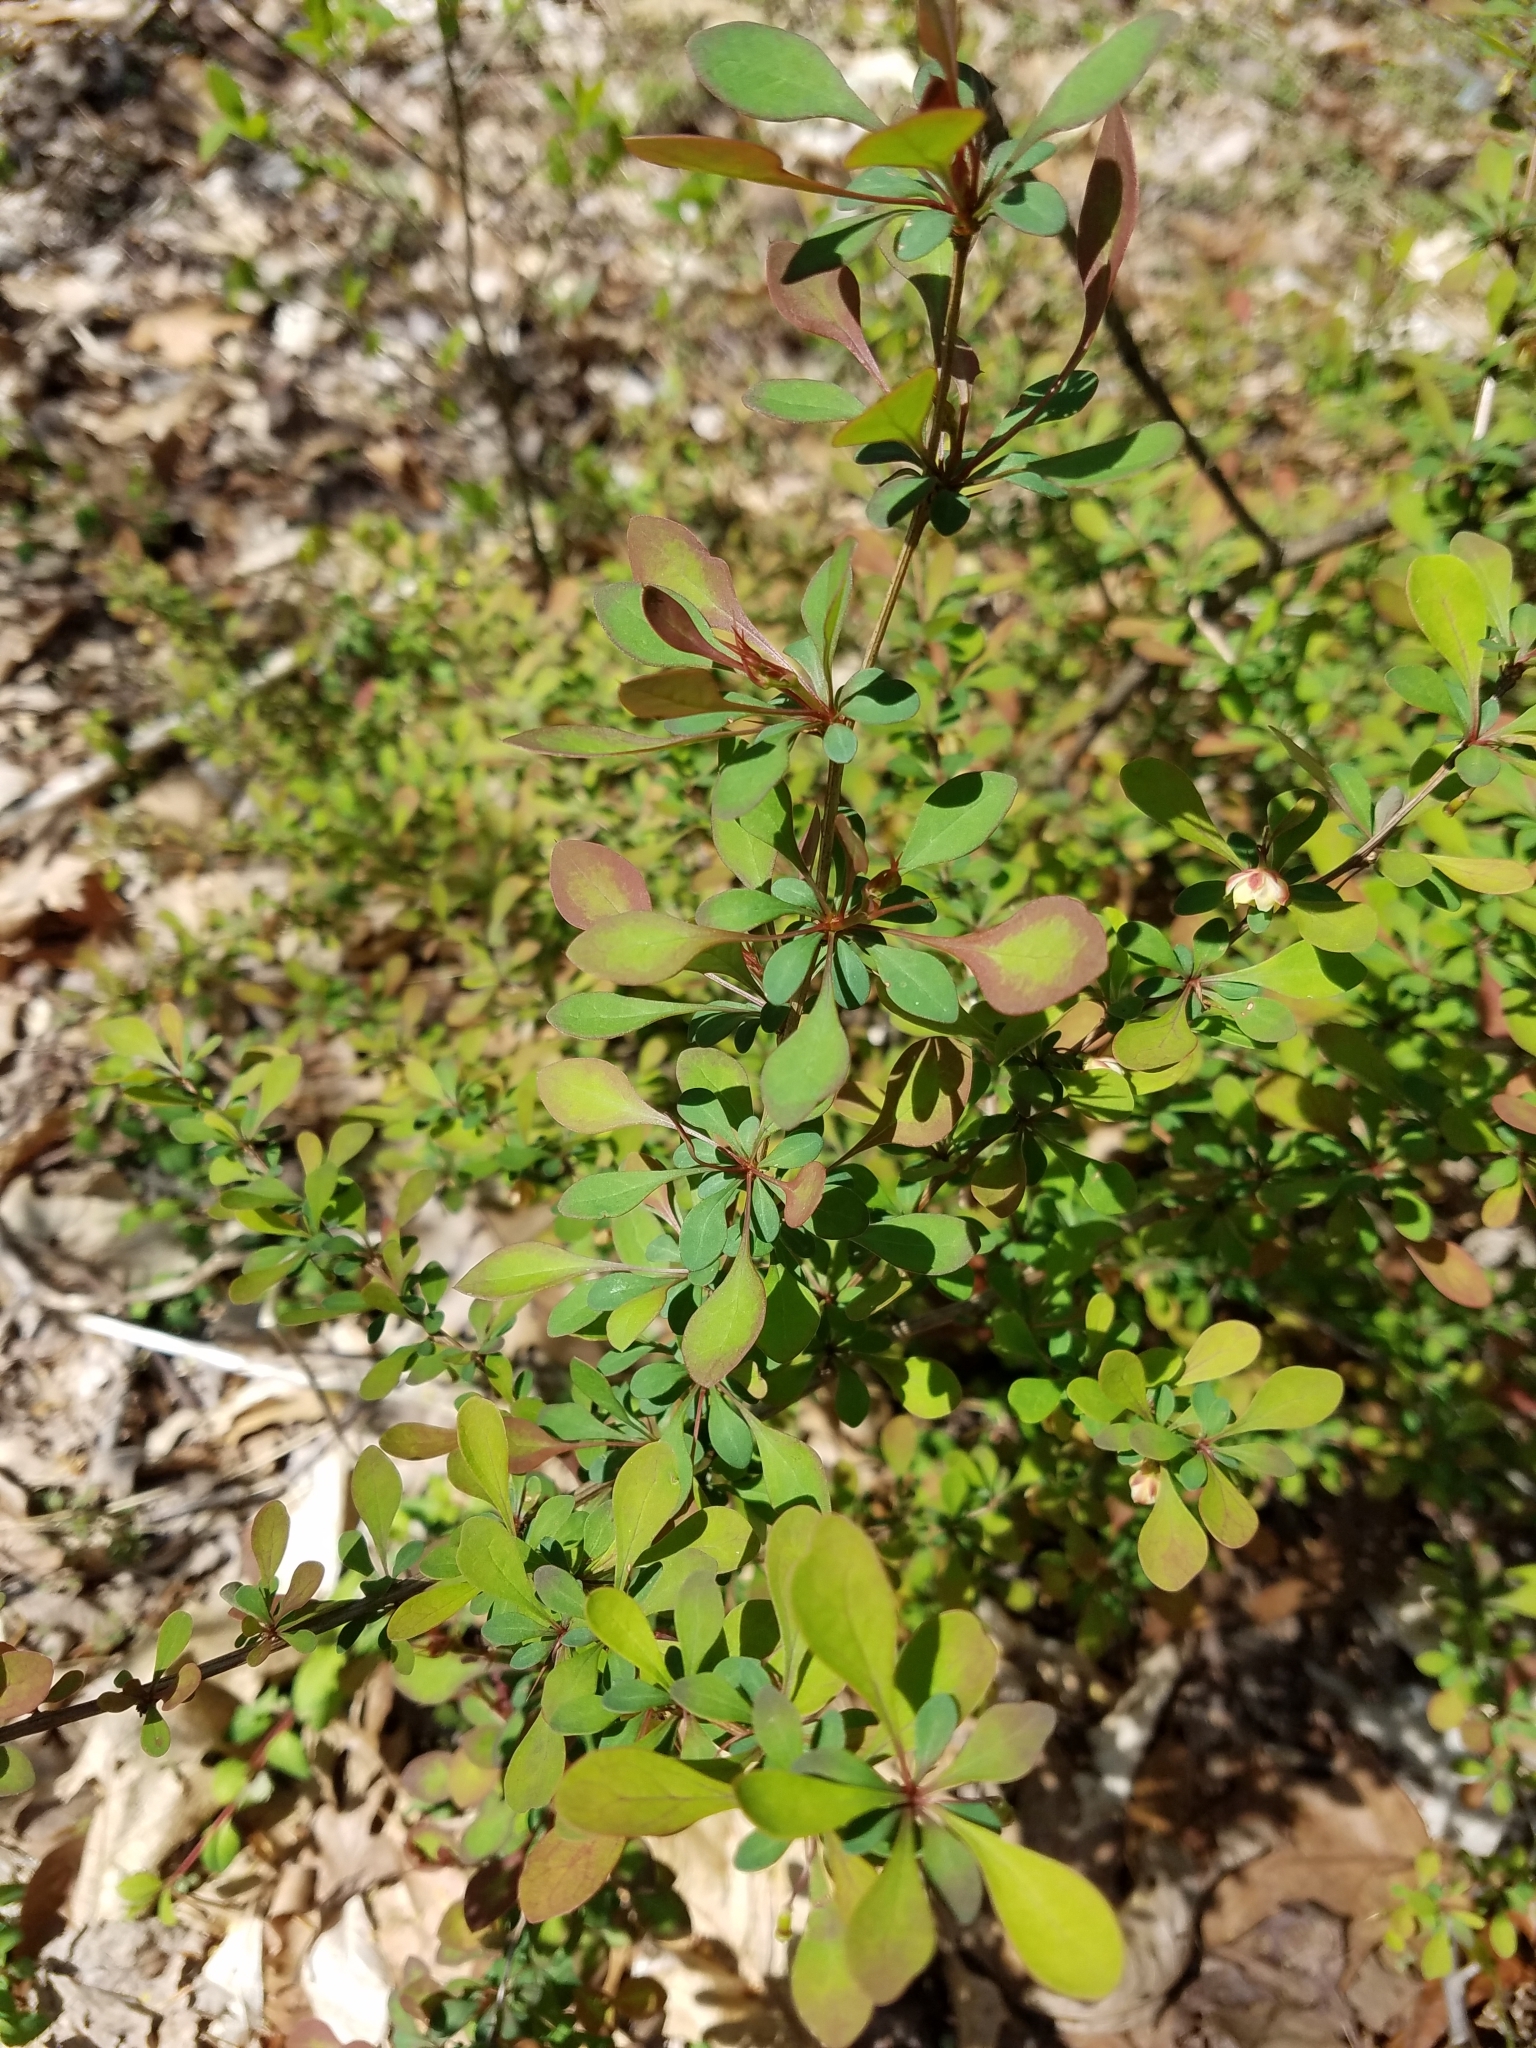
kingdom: Plantae
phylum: Tracheophyta
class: Magnoliopsida
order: Ranunculales
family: Berberidaceae
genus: Berberis
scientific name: Berberis thunbergii
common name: Japanese barberry
